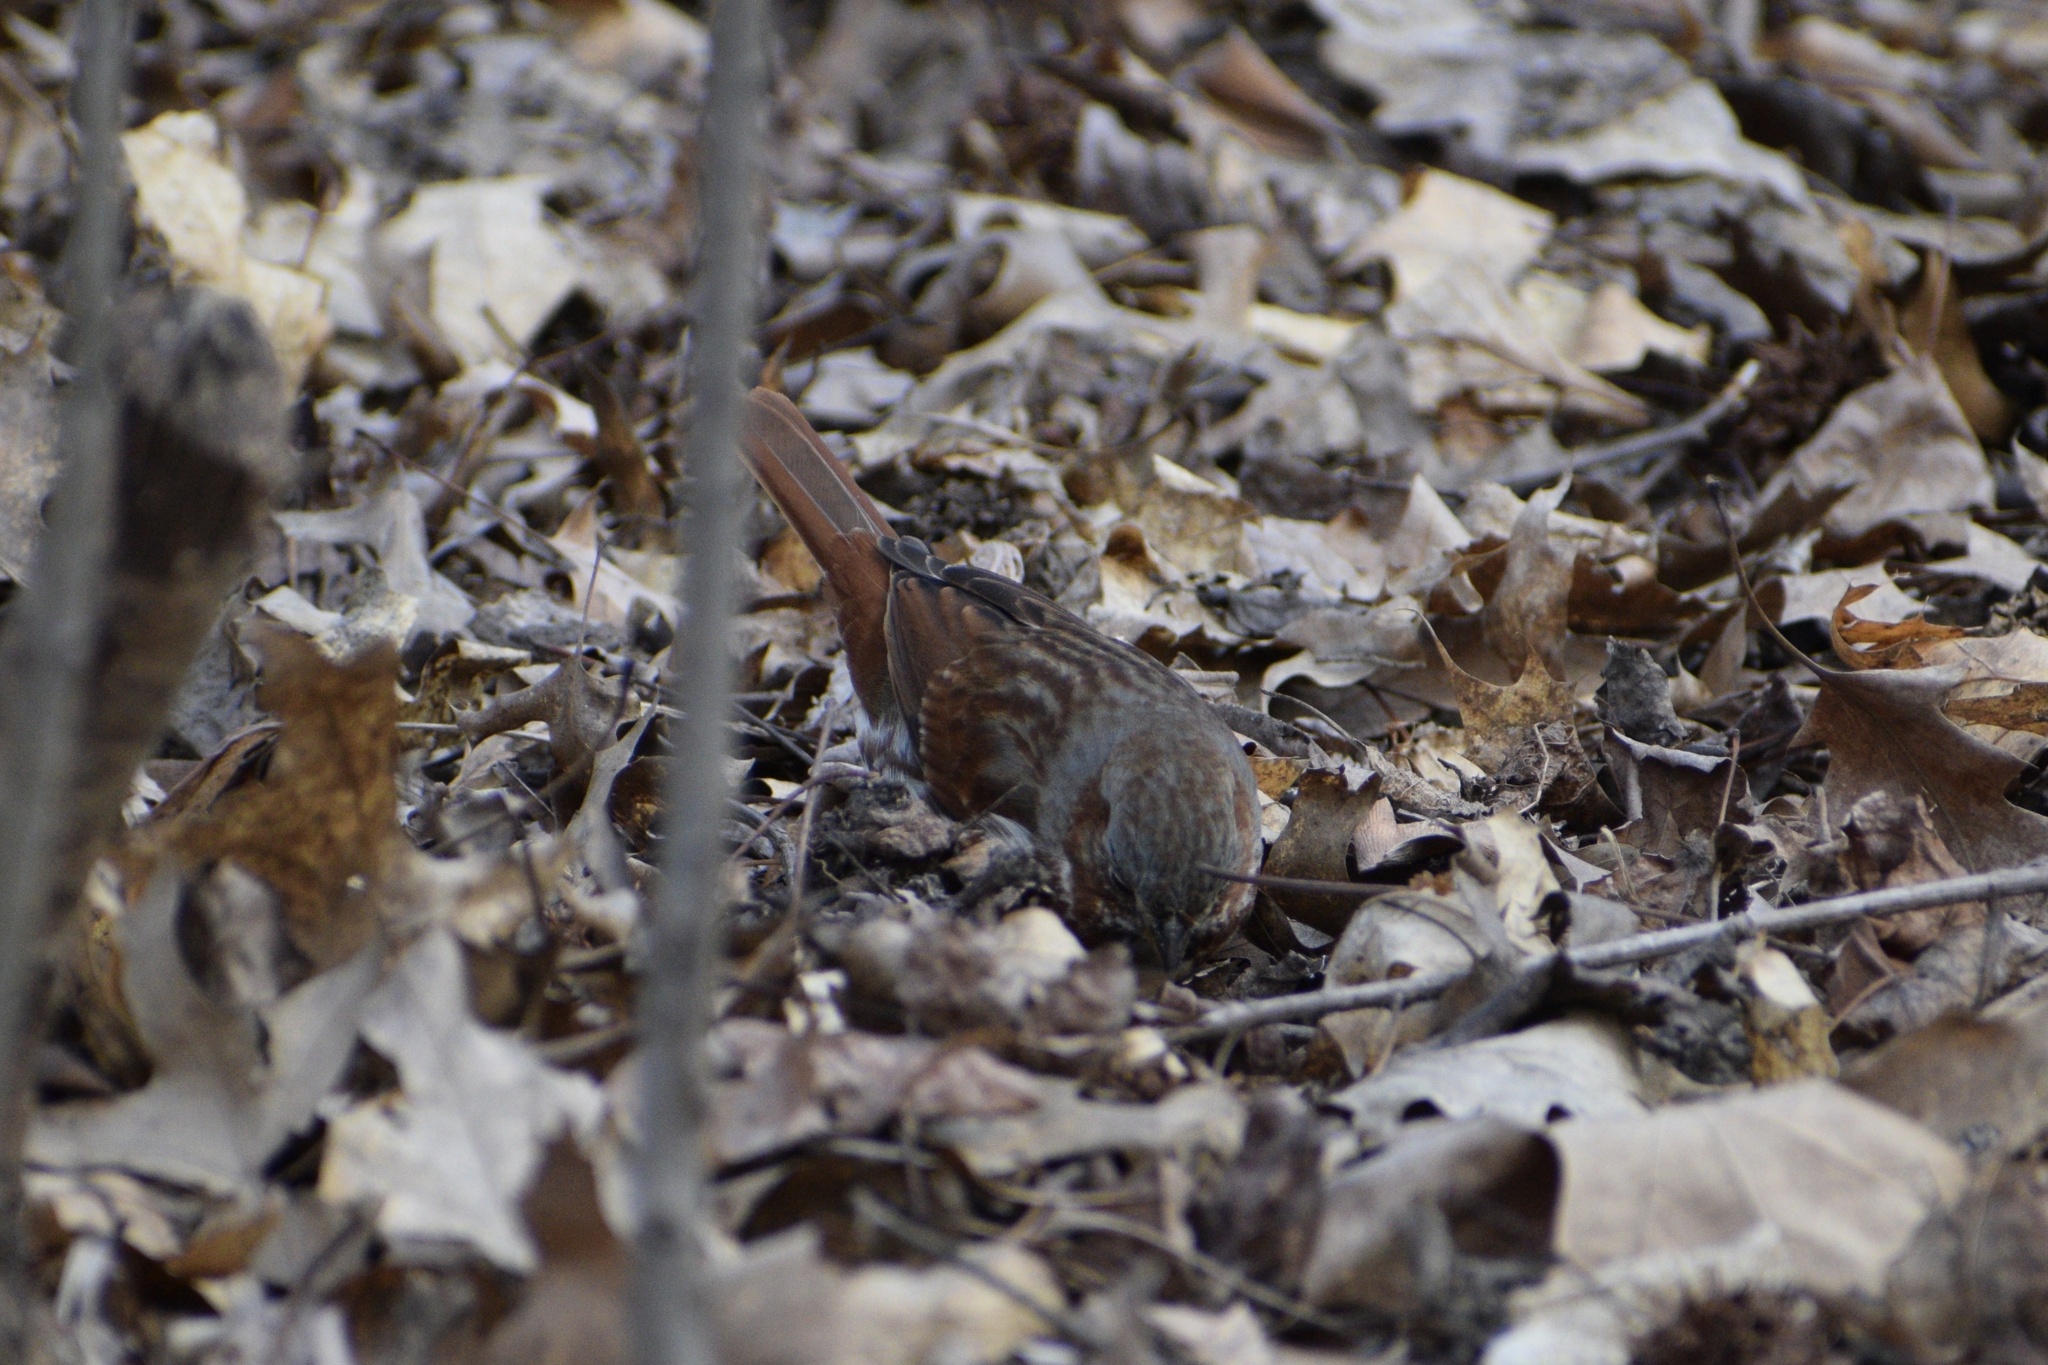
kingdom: Animalia
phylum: Chordata
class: Aves
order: Passeriformes
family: Passerellidae
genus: Passerella
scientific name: Passerella iliaca
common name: Fox sparrow
